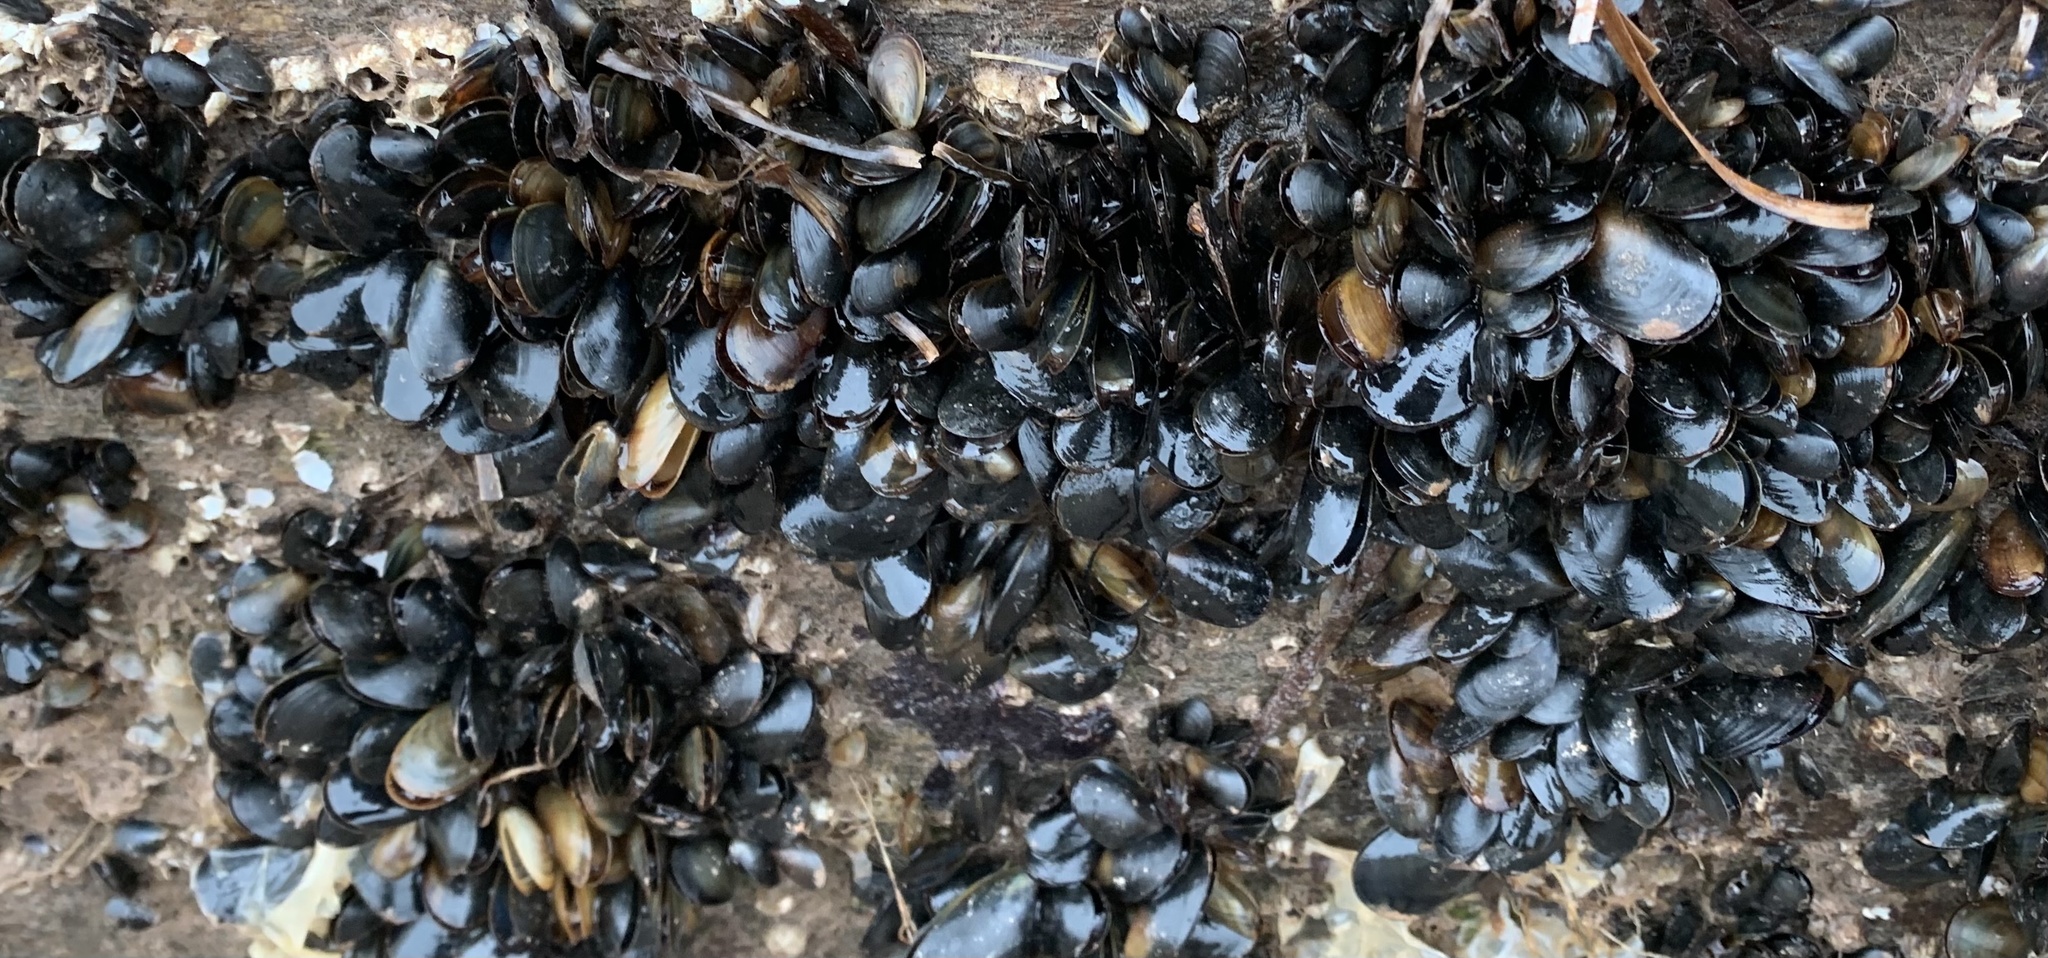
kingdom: Animalia
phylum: Mollusca
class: Bivalvia
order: Mytilida
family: Mytilidae
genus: Mytilus
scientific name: Mytilus
